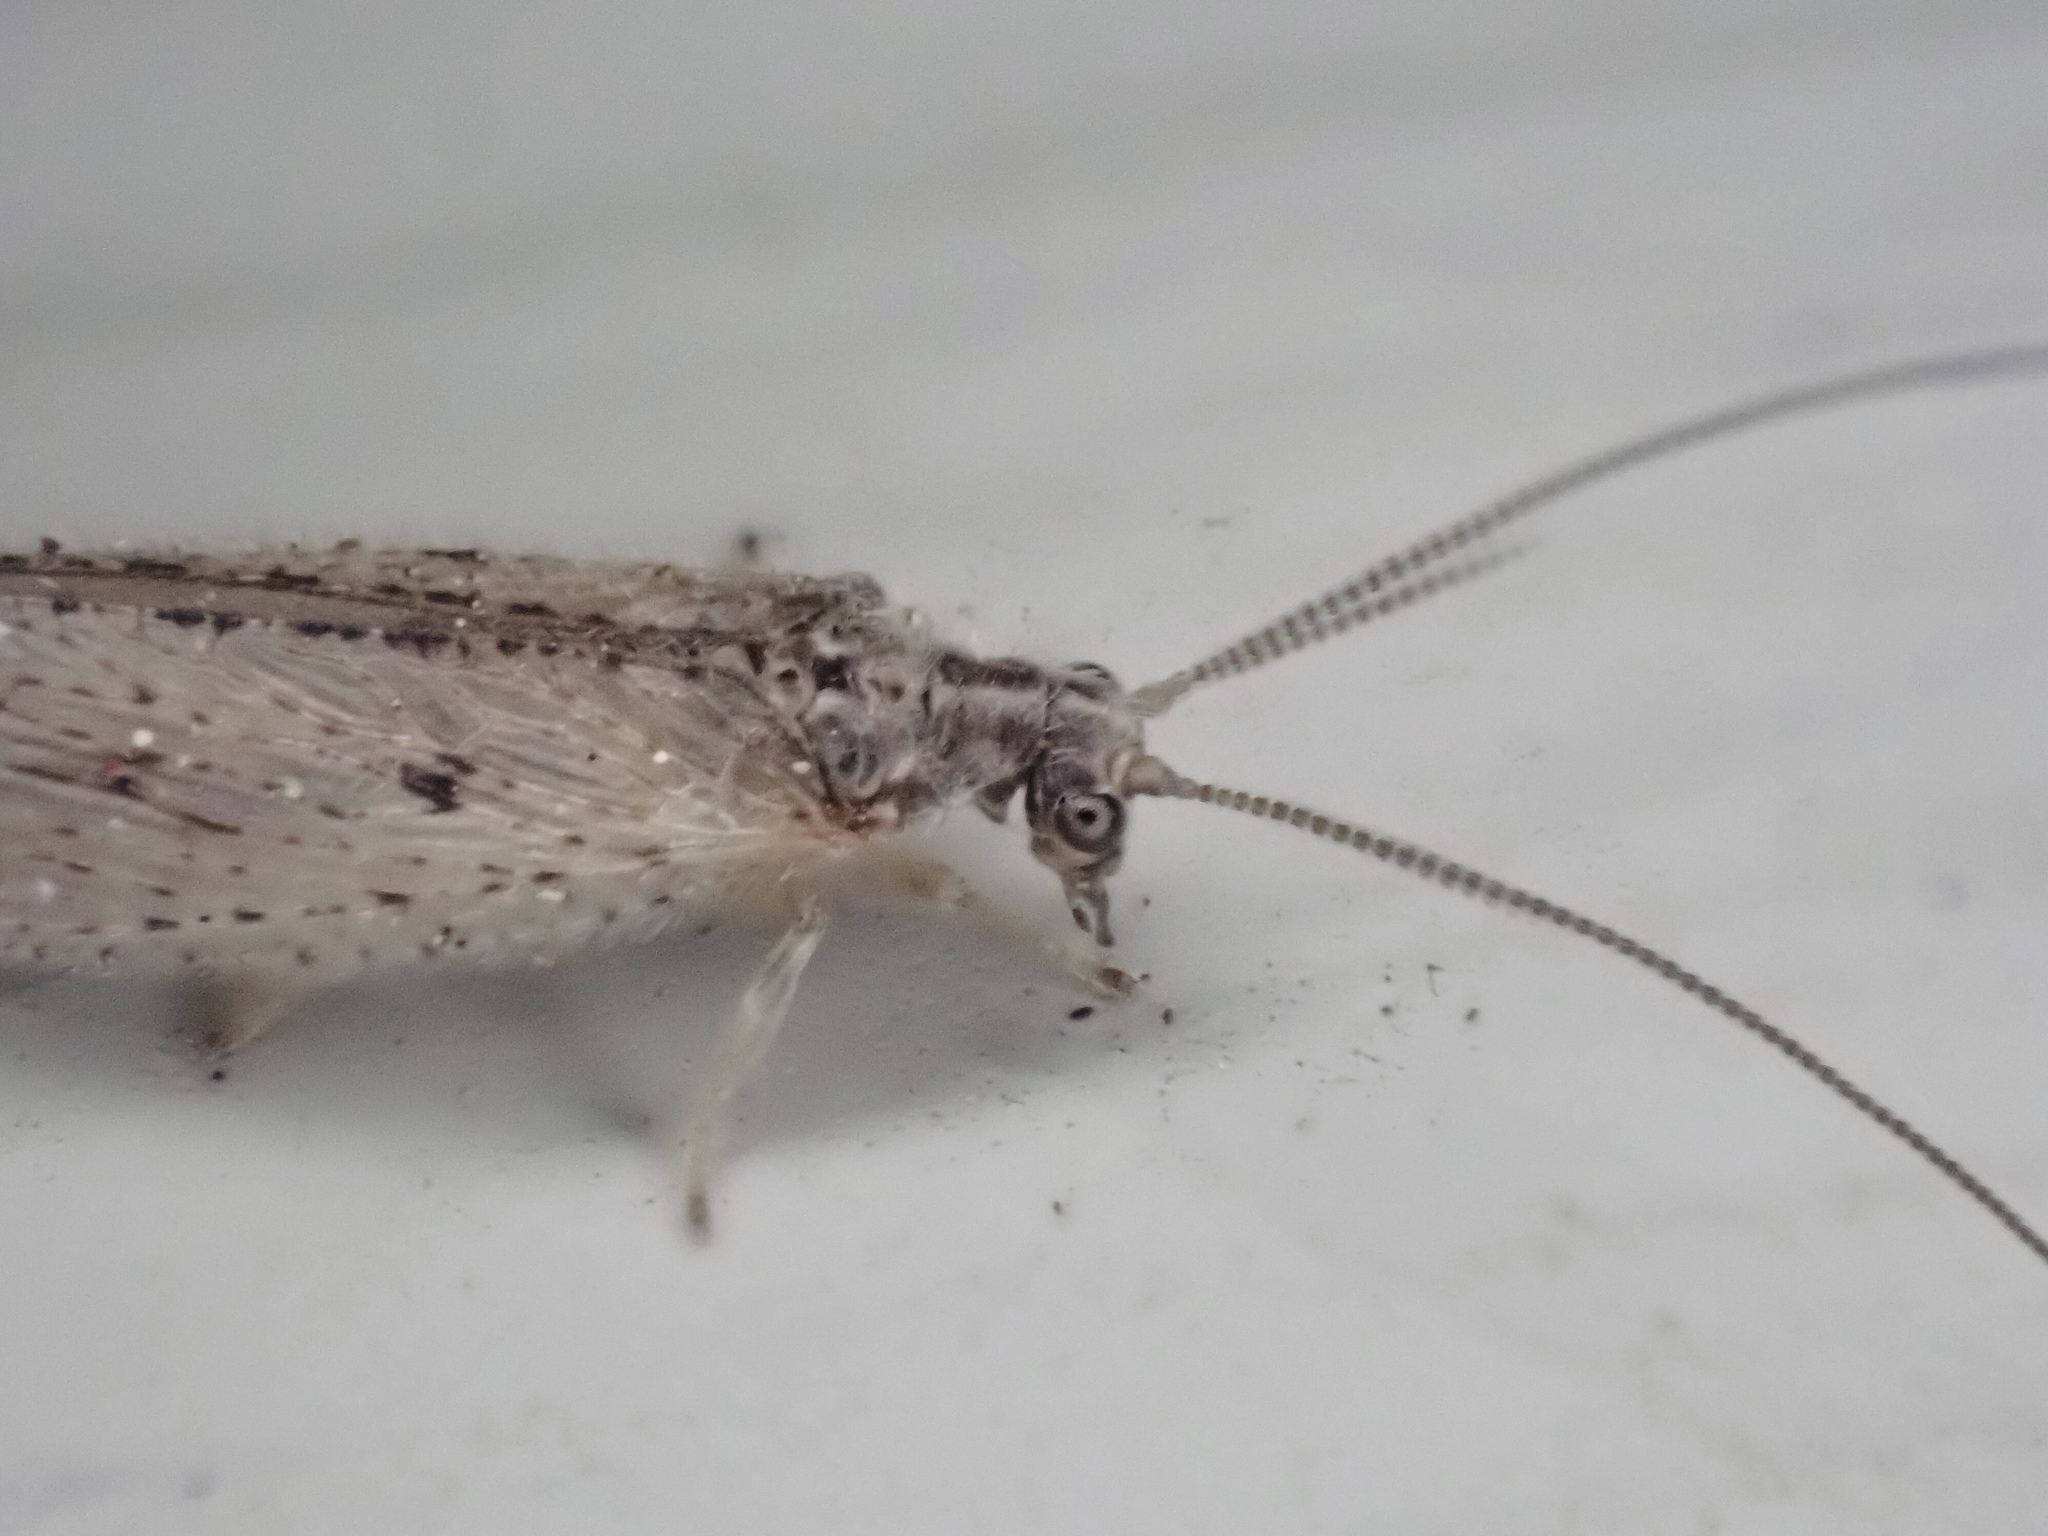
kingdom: Animalia
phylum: Arthropoda
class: Insecta
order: Neuroptera
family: Hemerobiidae
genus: Micromus
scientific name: Micromus subanticus
